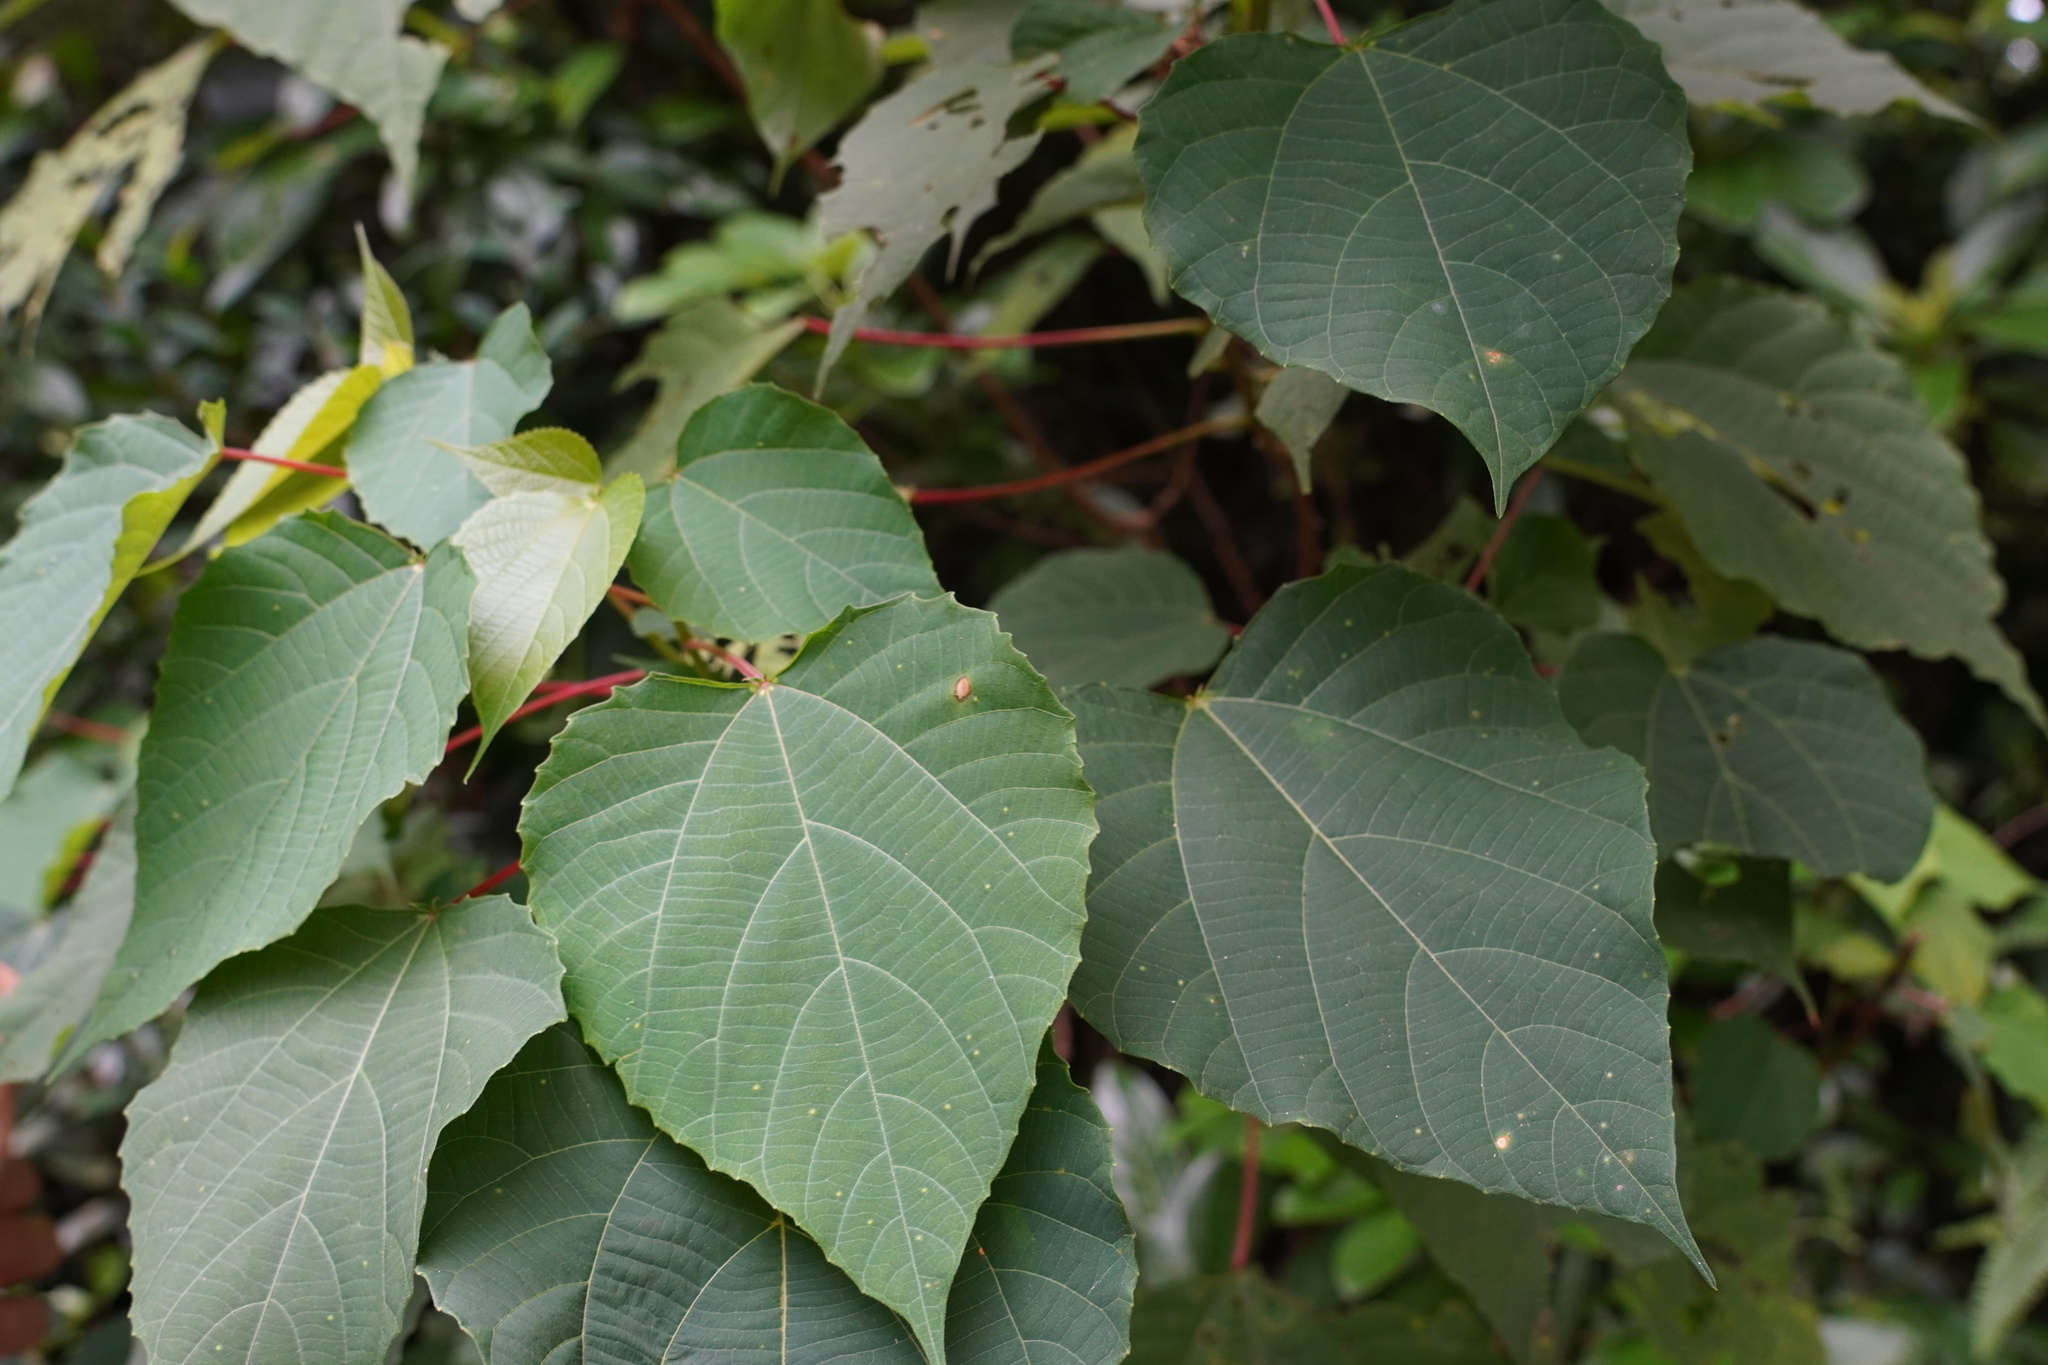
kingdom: Plantae
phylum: Tracheophyta
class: Magnoliopsida
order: Malpighiales
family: Euphorbiaceae
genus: Alchornea
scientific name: Alchornea trewioides
